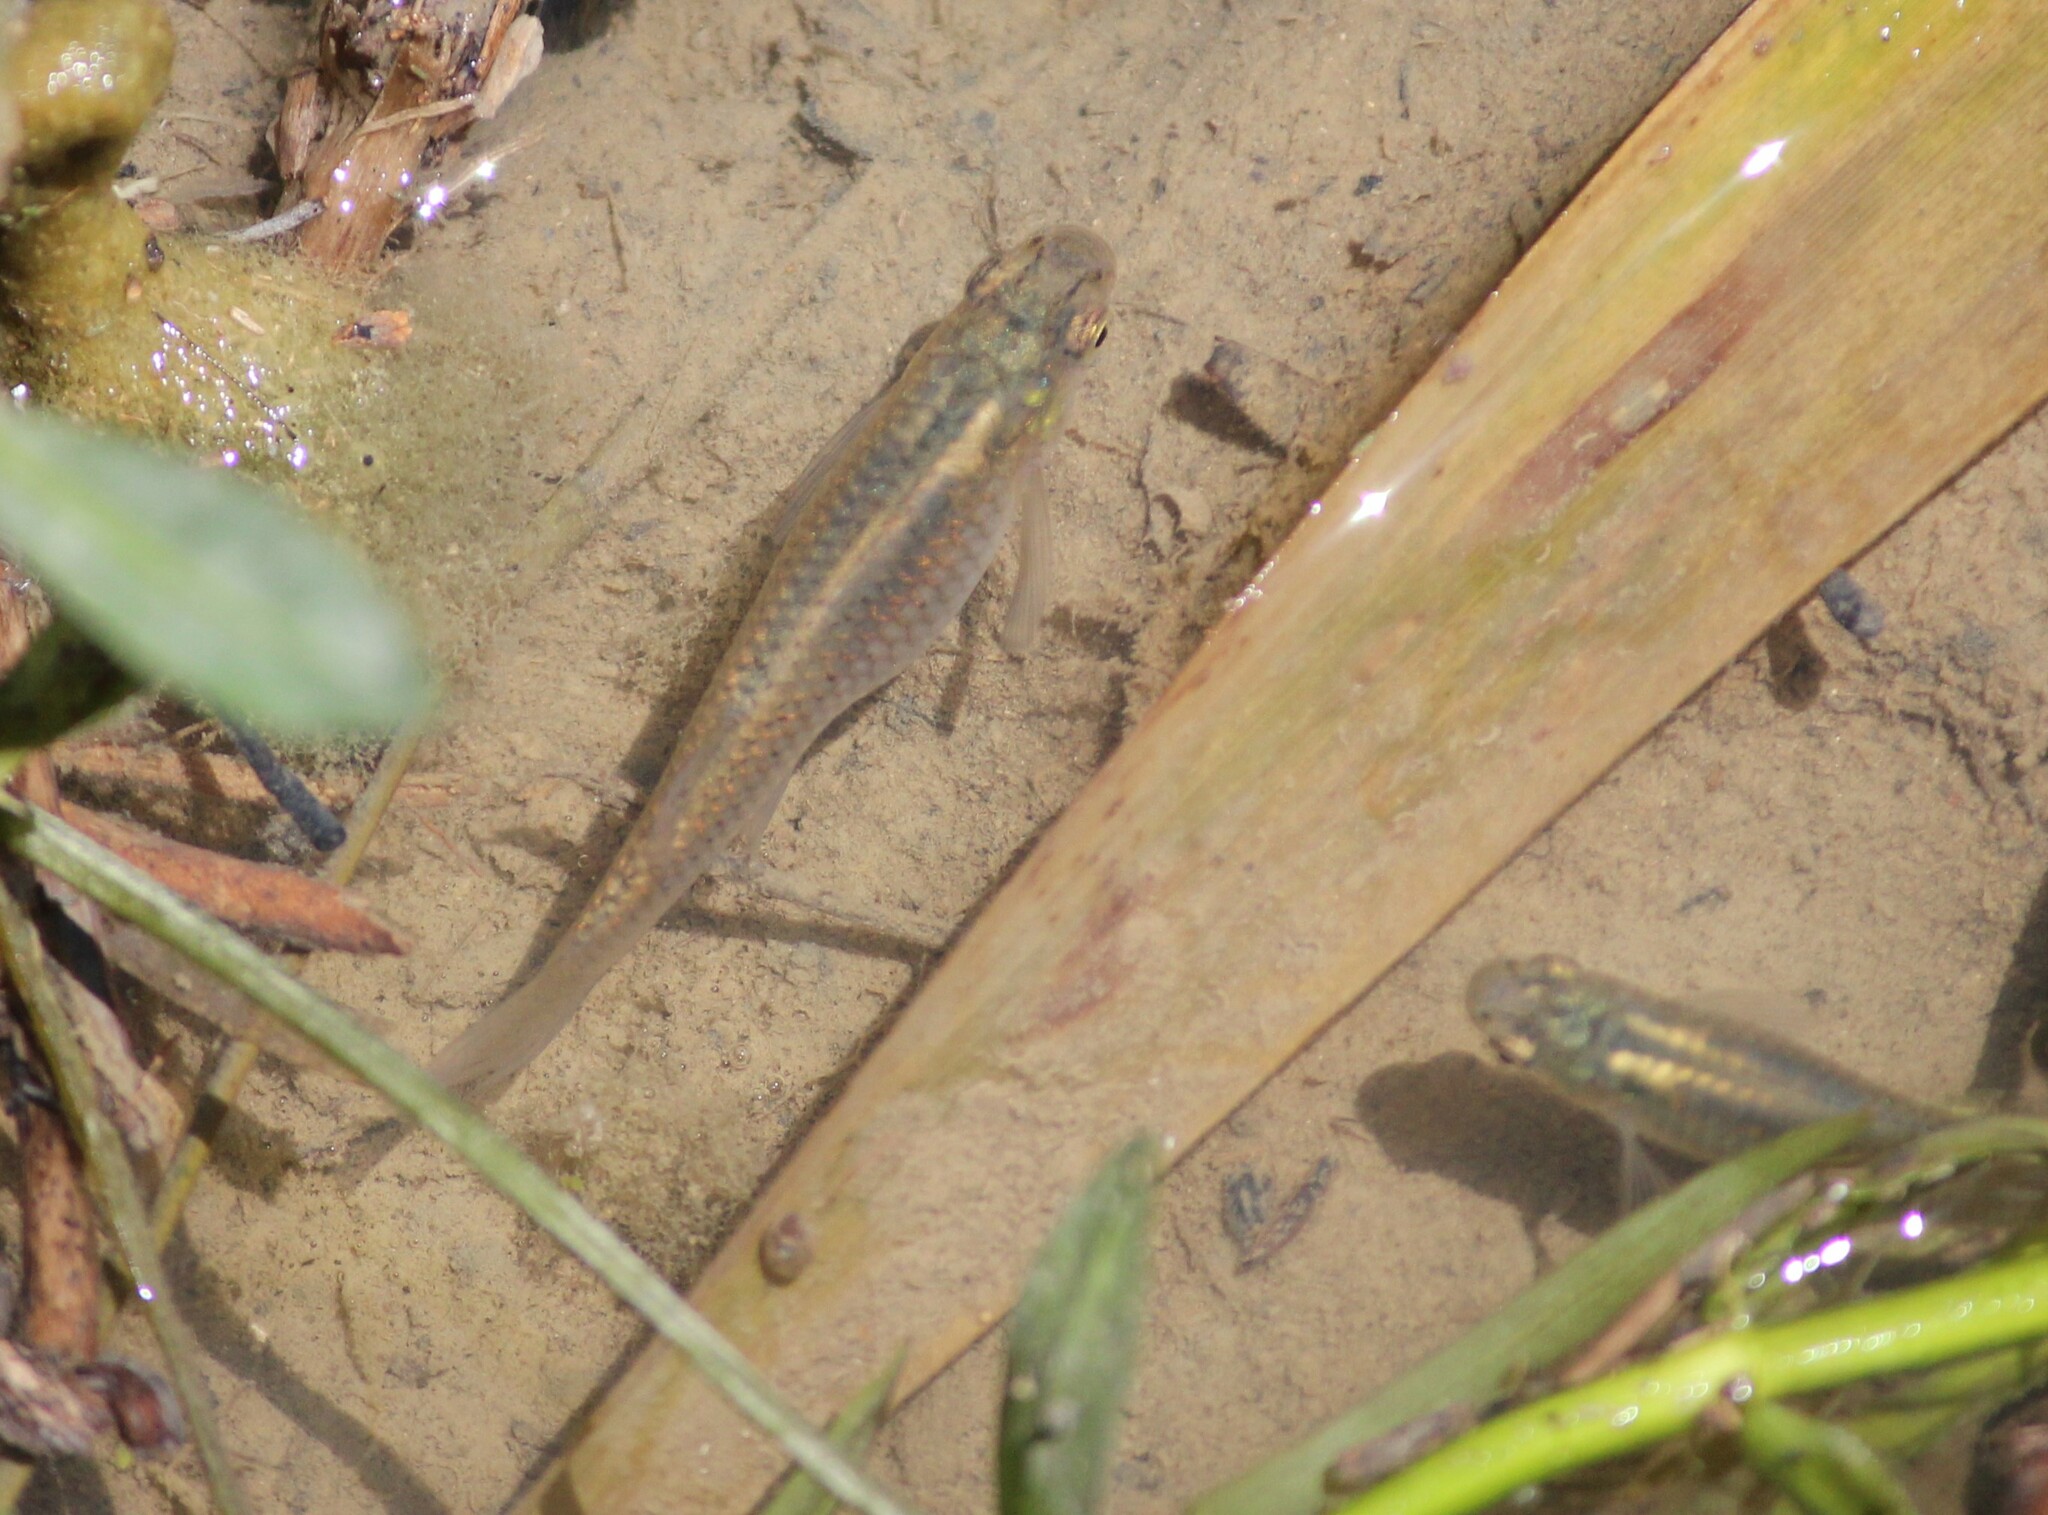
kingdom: Animalia
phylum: Chordata
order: Cyprinodontiformes
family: Poeciliidae
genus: Gambusia
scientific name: Gambusia affinis
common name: Mosquitofish
